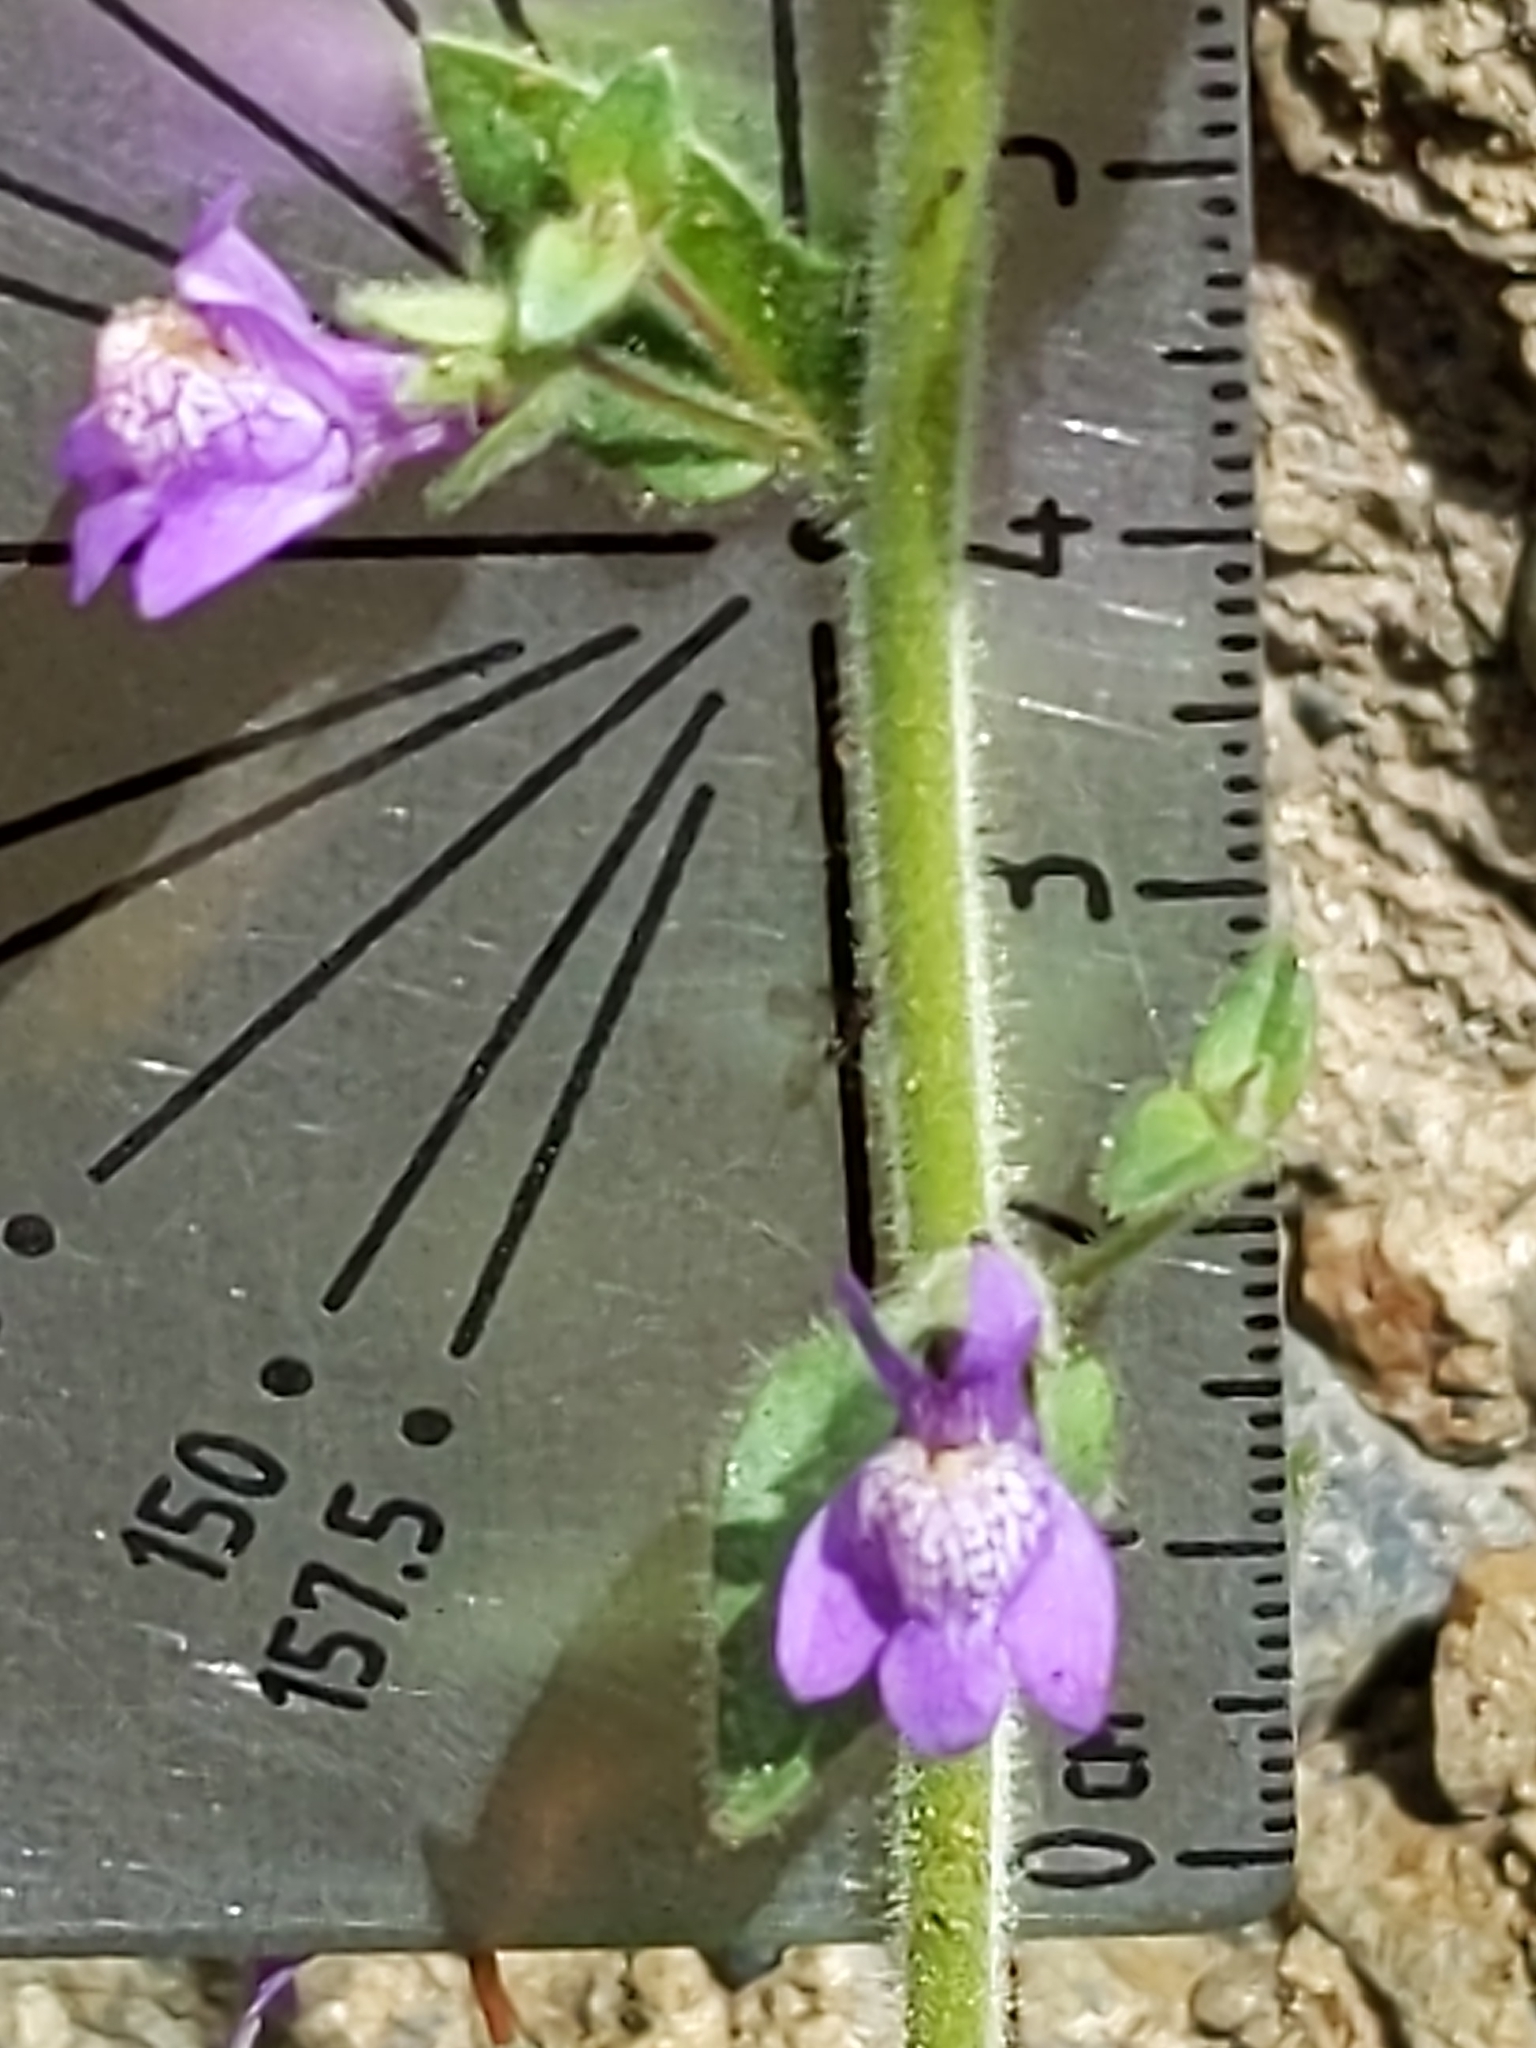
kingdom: Plantae
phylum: Tracheophyta
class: Magnoliopsida
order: Lamiales
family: Plantaginaceae
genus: Sairocarpus
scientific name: Sairocarpus nuttallianus
